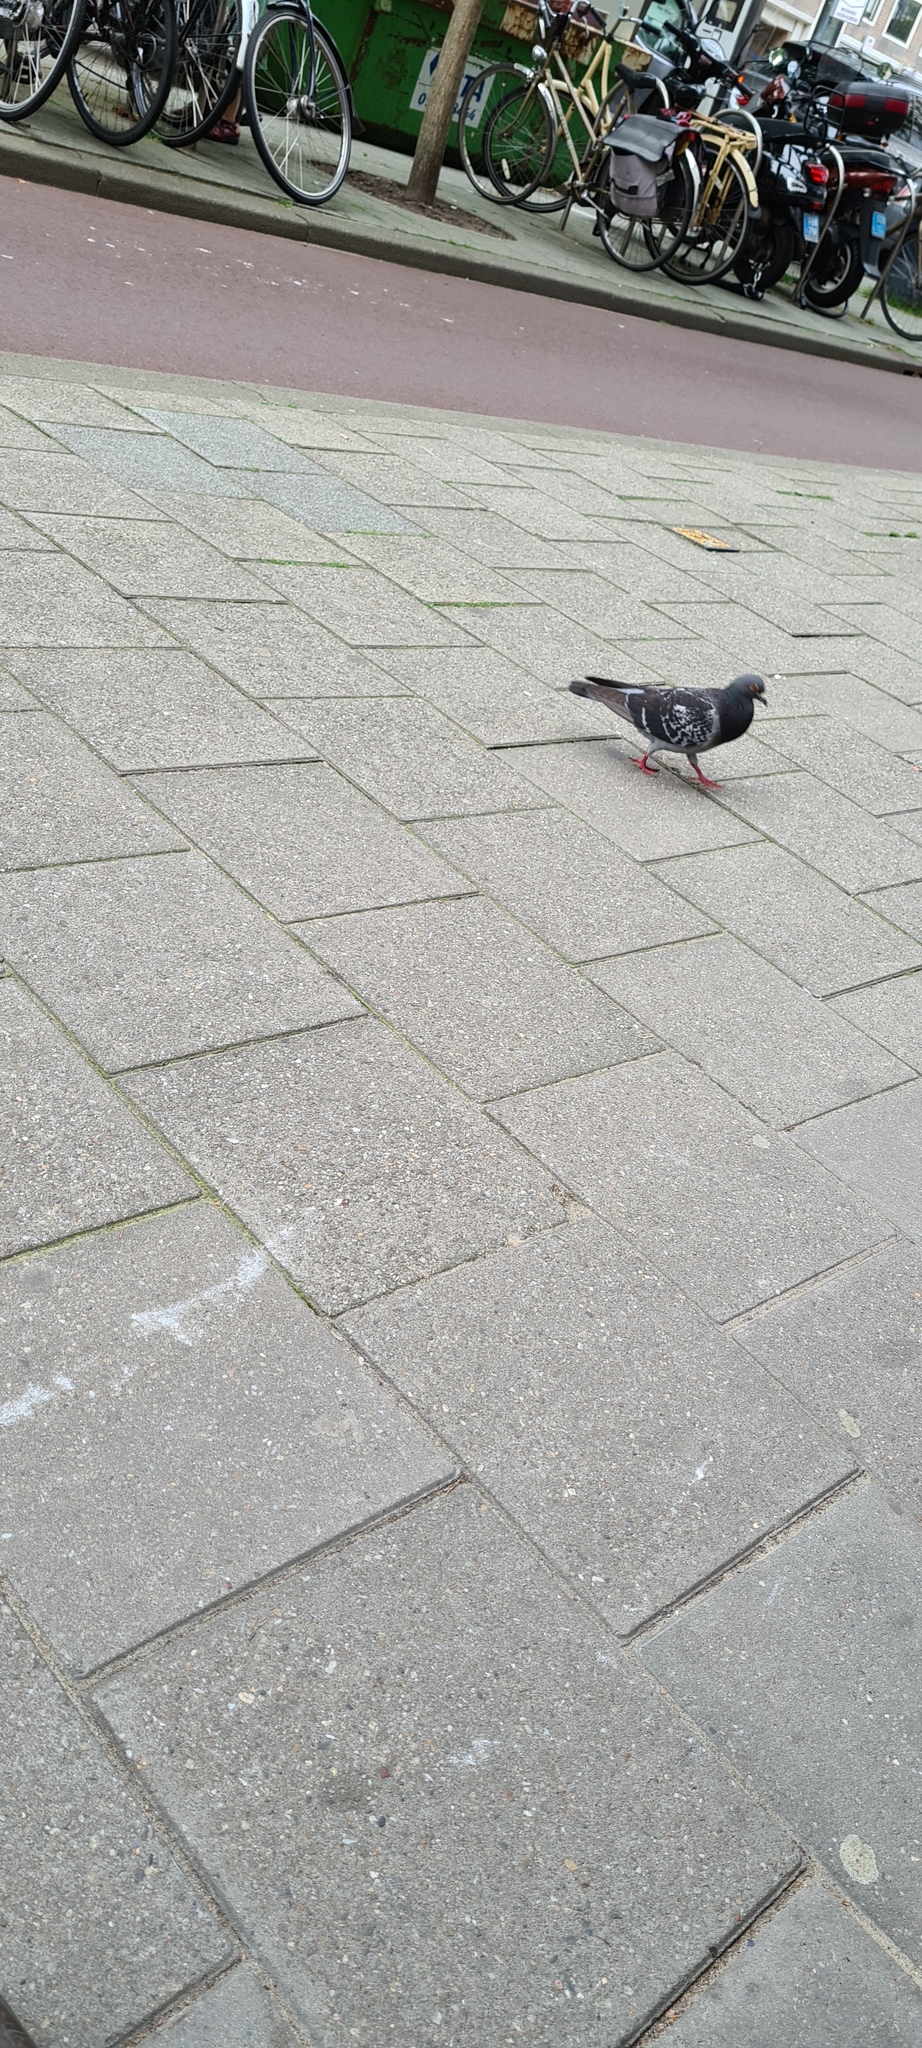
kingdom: Animalia
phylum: Chordata
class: Aves
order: Columbiformes
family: Columbidae
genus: Columba
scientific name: Columba livia
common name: Rock pigeon
